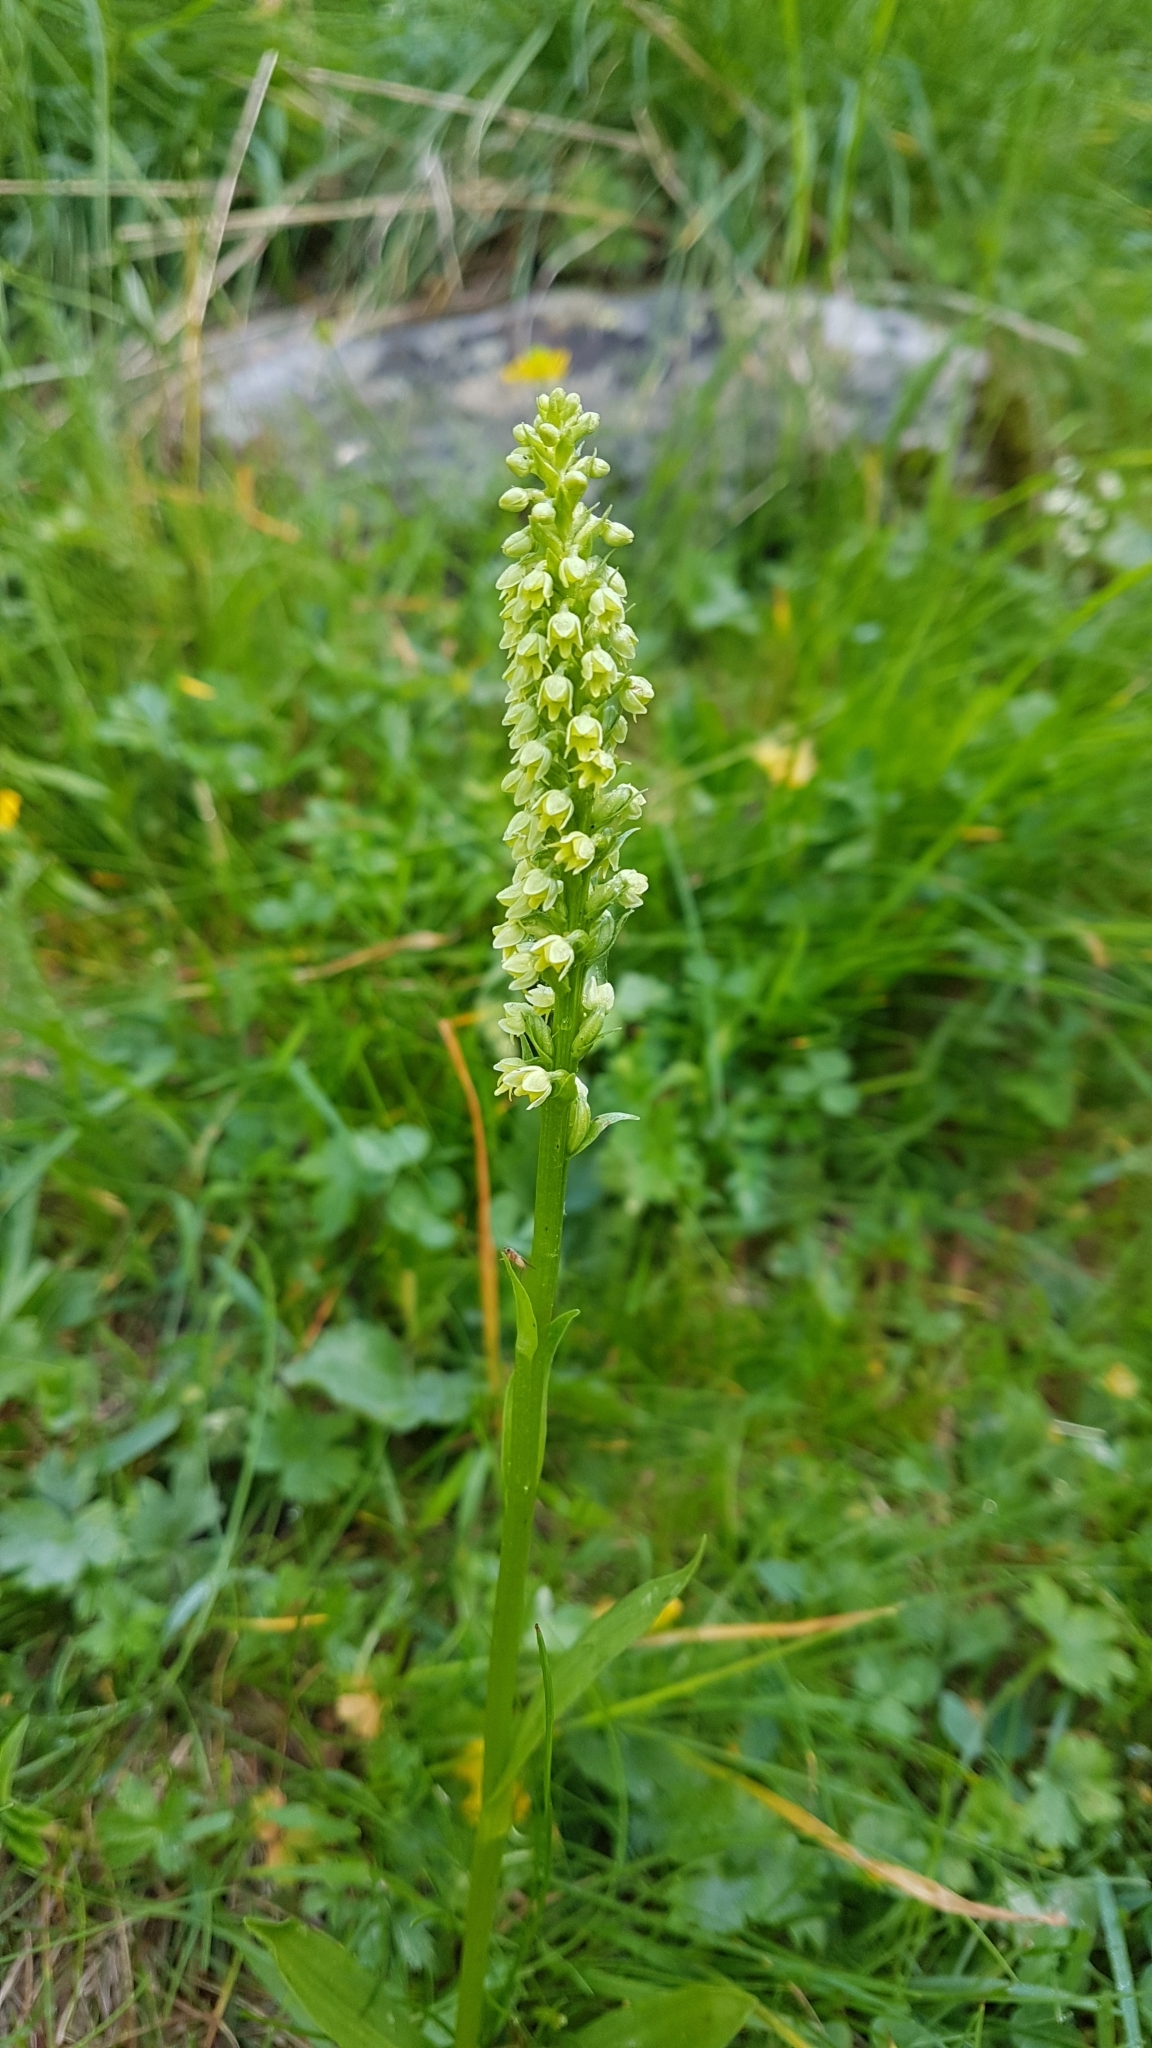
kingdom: Plantae
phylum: Tracheophyta
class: Liliopsida
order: Asparagales
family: Orchidaceae
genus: Pseudorchis
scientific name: Pseudorchis albida
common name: Small-white orchid
